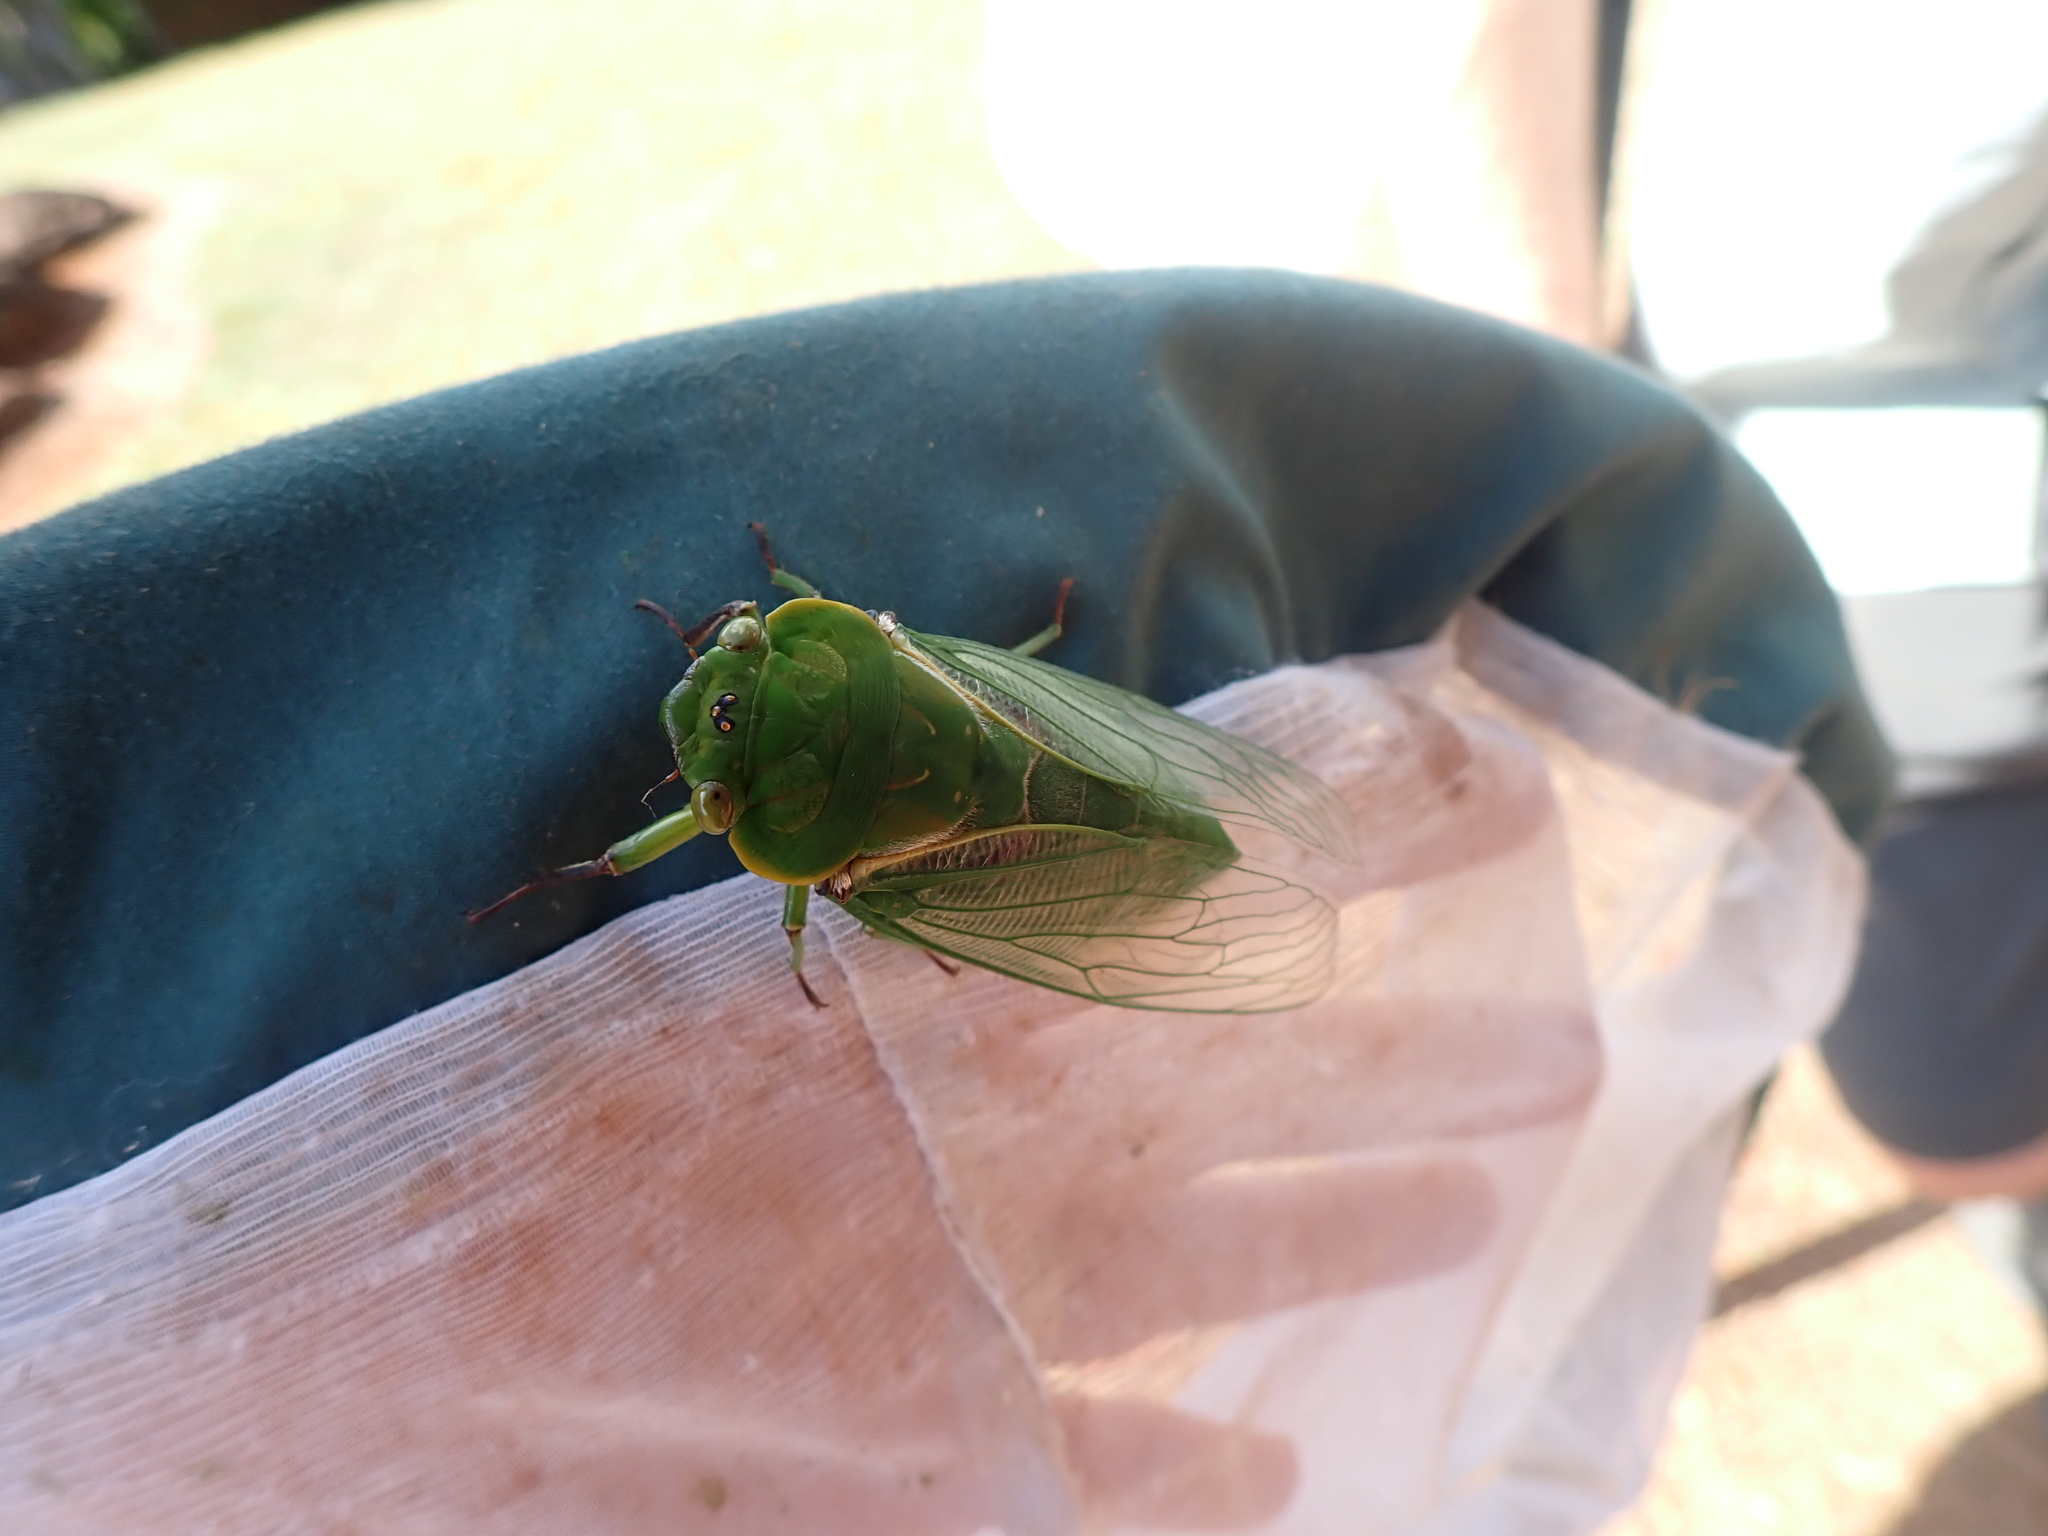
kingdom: Animalia
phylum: Arthropoda
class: Insecta
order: Hemiptera
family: Cicadidae
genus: Cyclochila
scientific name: Cyclochila virens
